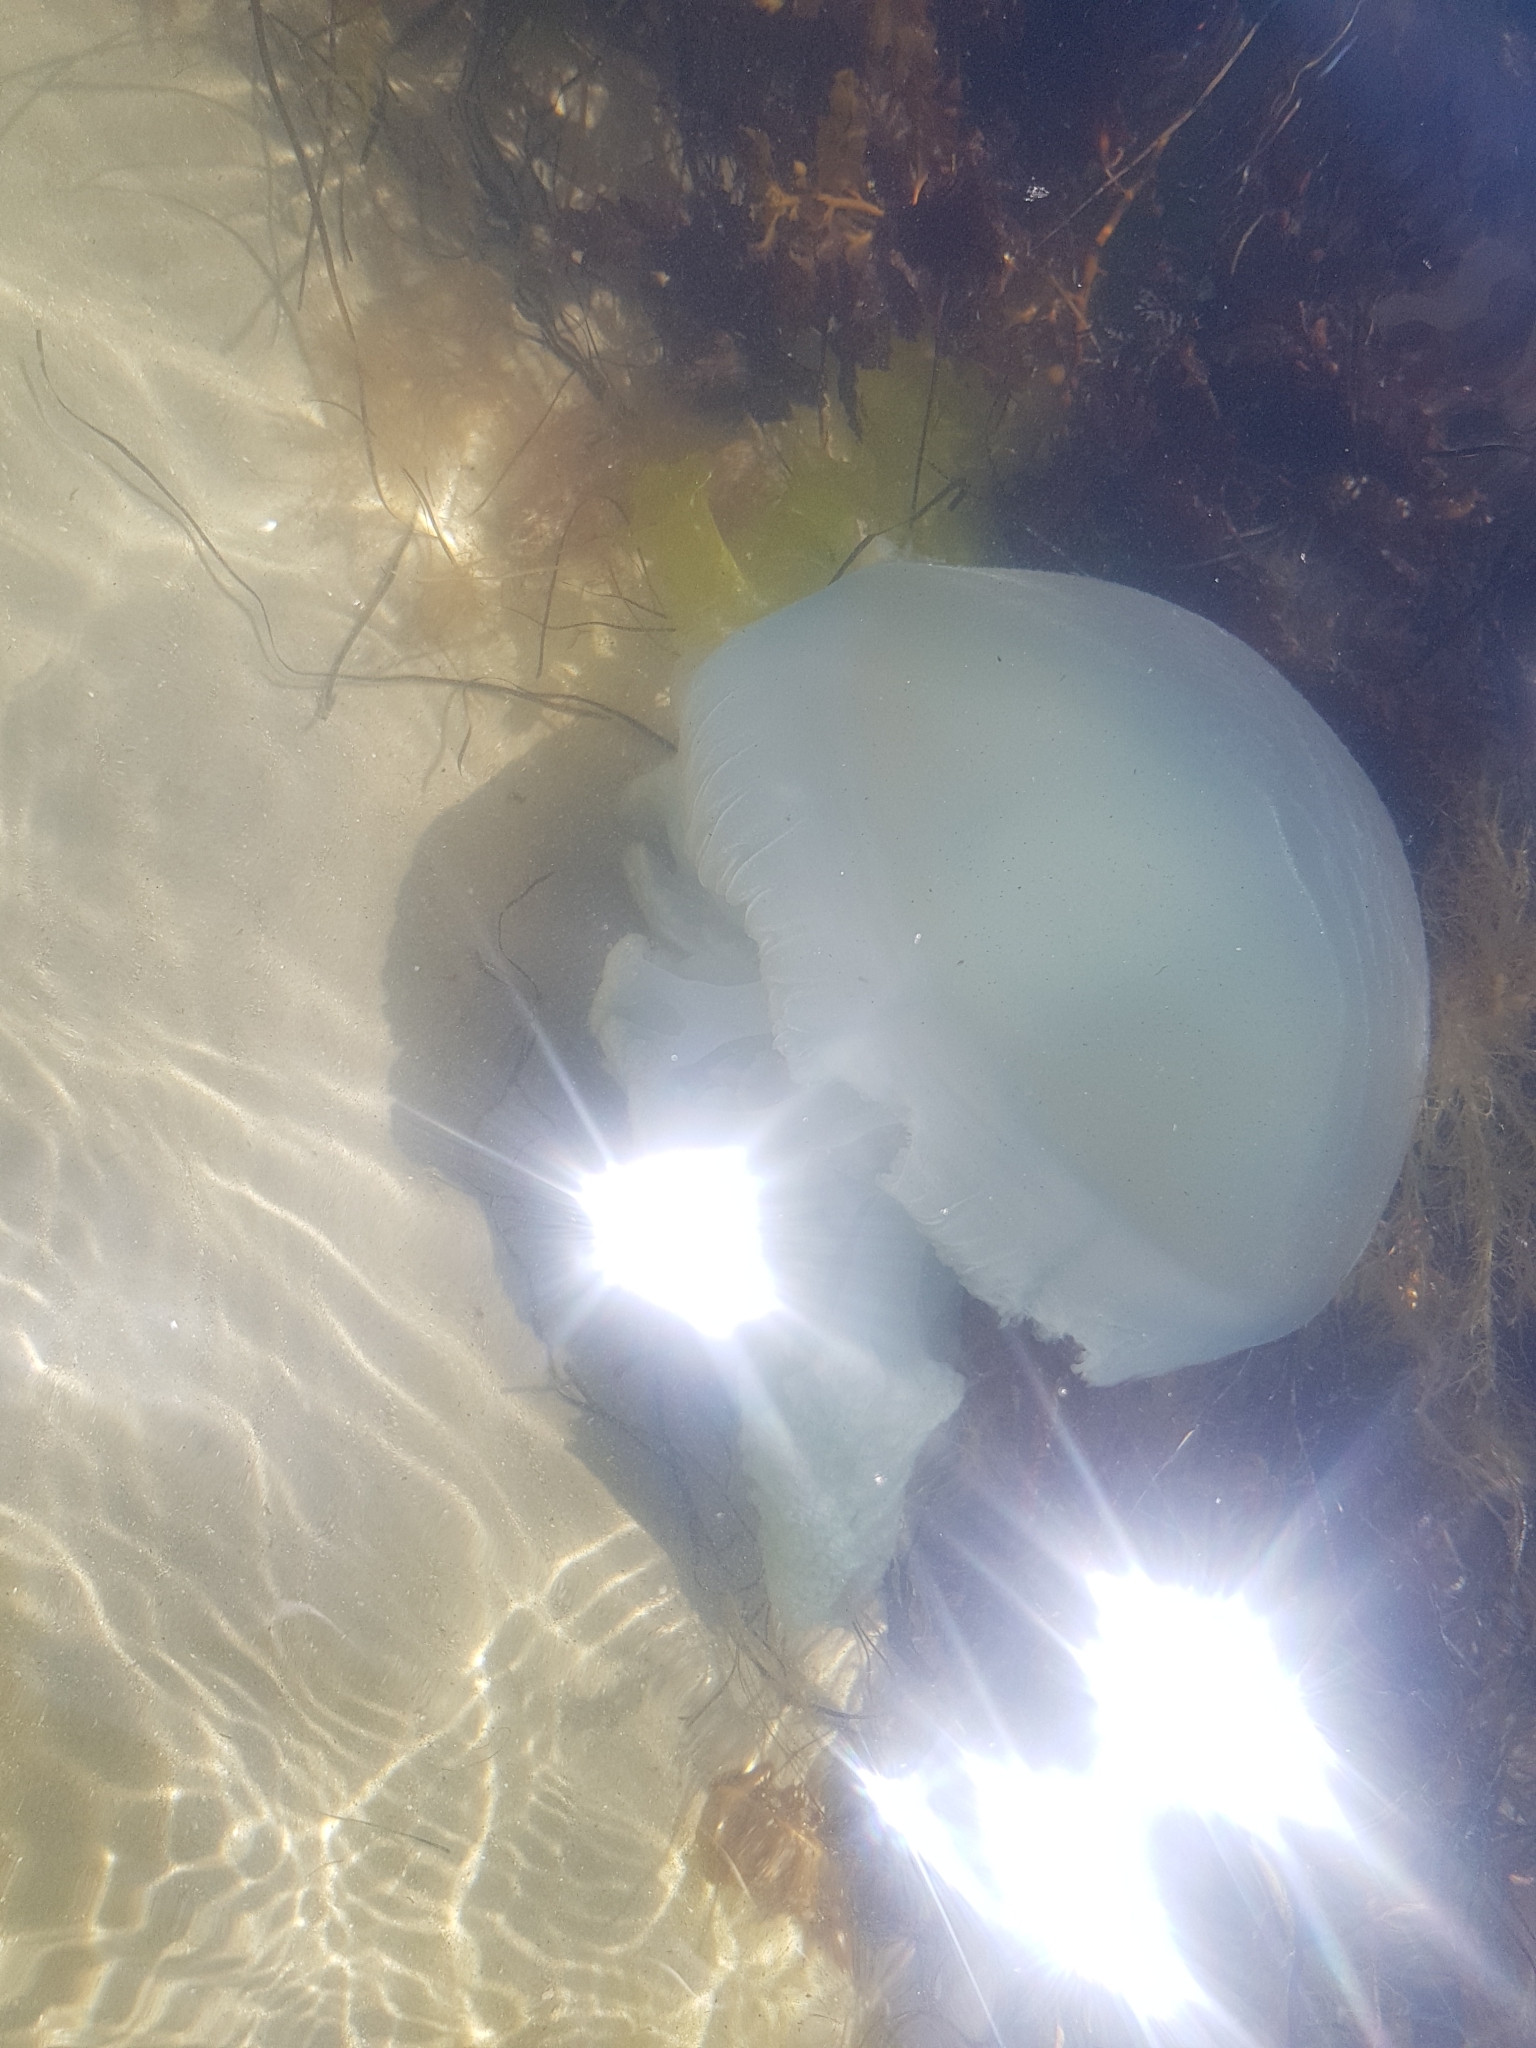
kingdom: Animalia
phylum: Cnidaria
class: Scyphozoa
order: Rhizostomeae
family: Catostylidae
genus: Catostylus
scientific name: Catostylus mosaicus
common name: Blue blubber
